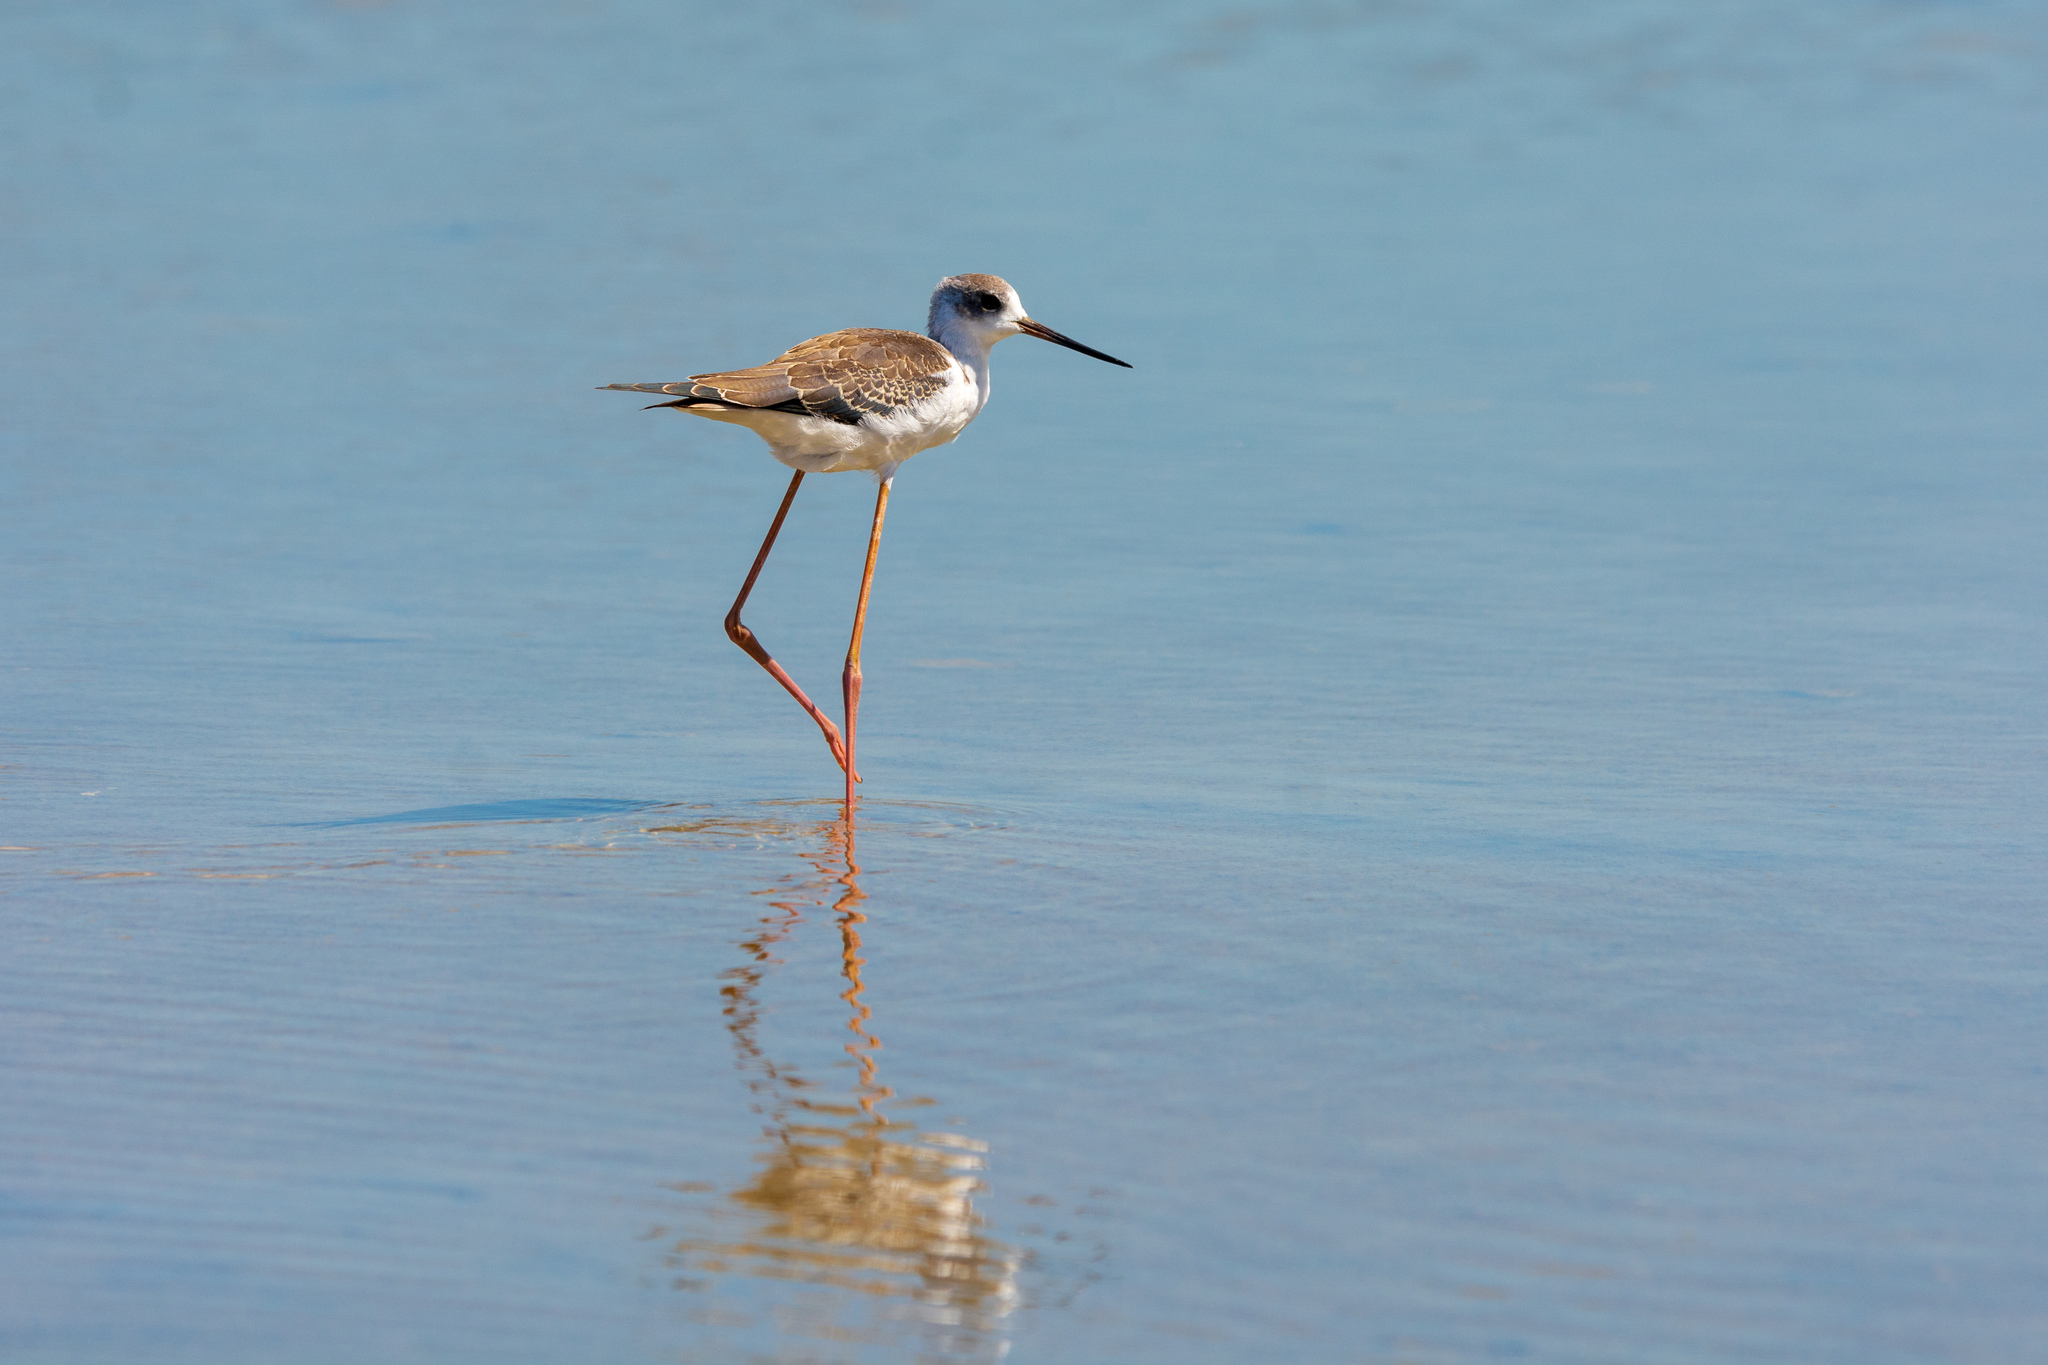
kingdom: Animalia
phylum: Chordata
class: Aves
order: Charadriiformes
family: Recurvirostridae
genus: Himantopus
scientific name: Himantopus himantopus
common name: Black-winged stilt
